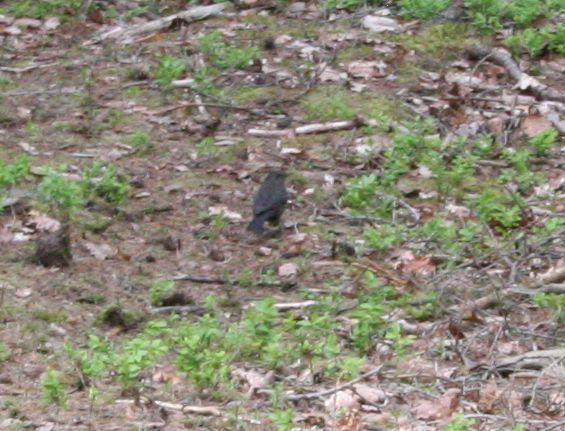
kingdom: Animalia
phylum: Chordata
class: Aves
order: Passeriformes
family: Turdidae
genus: Turdus
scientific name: Turdus merula
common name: Common blackbird
